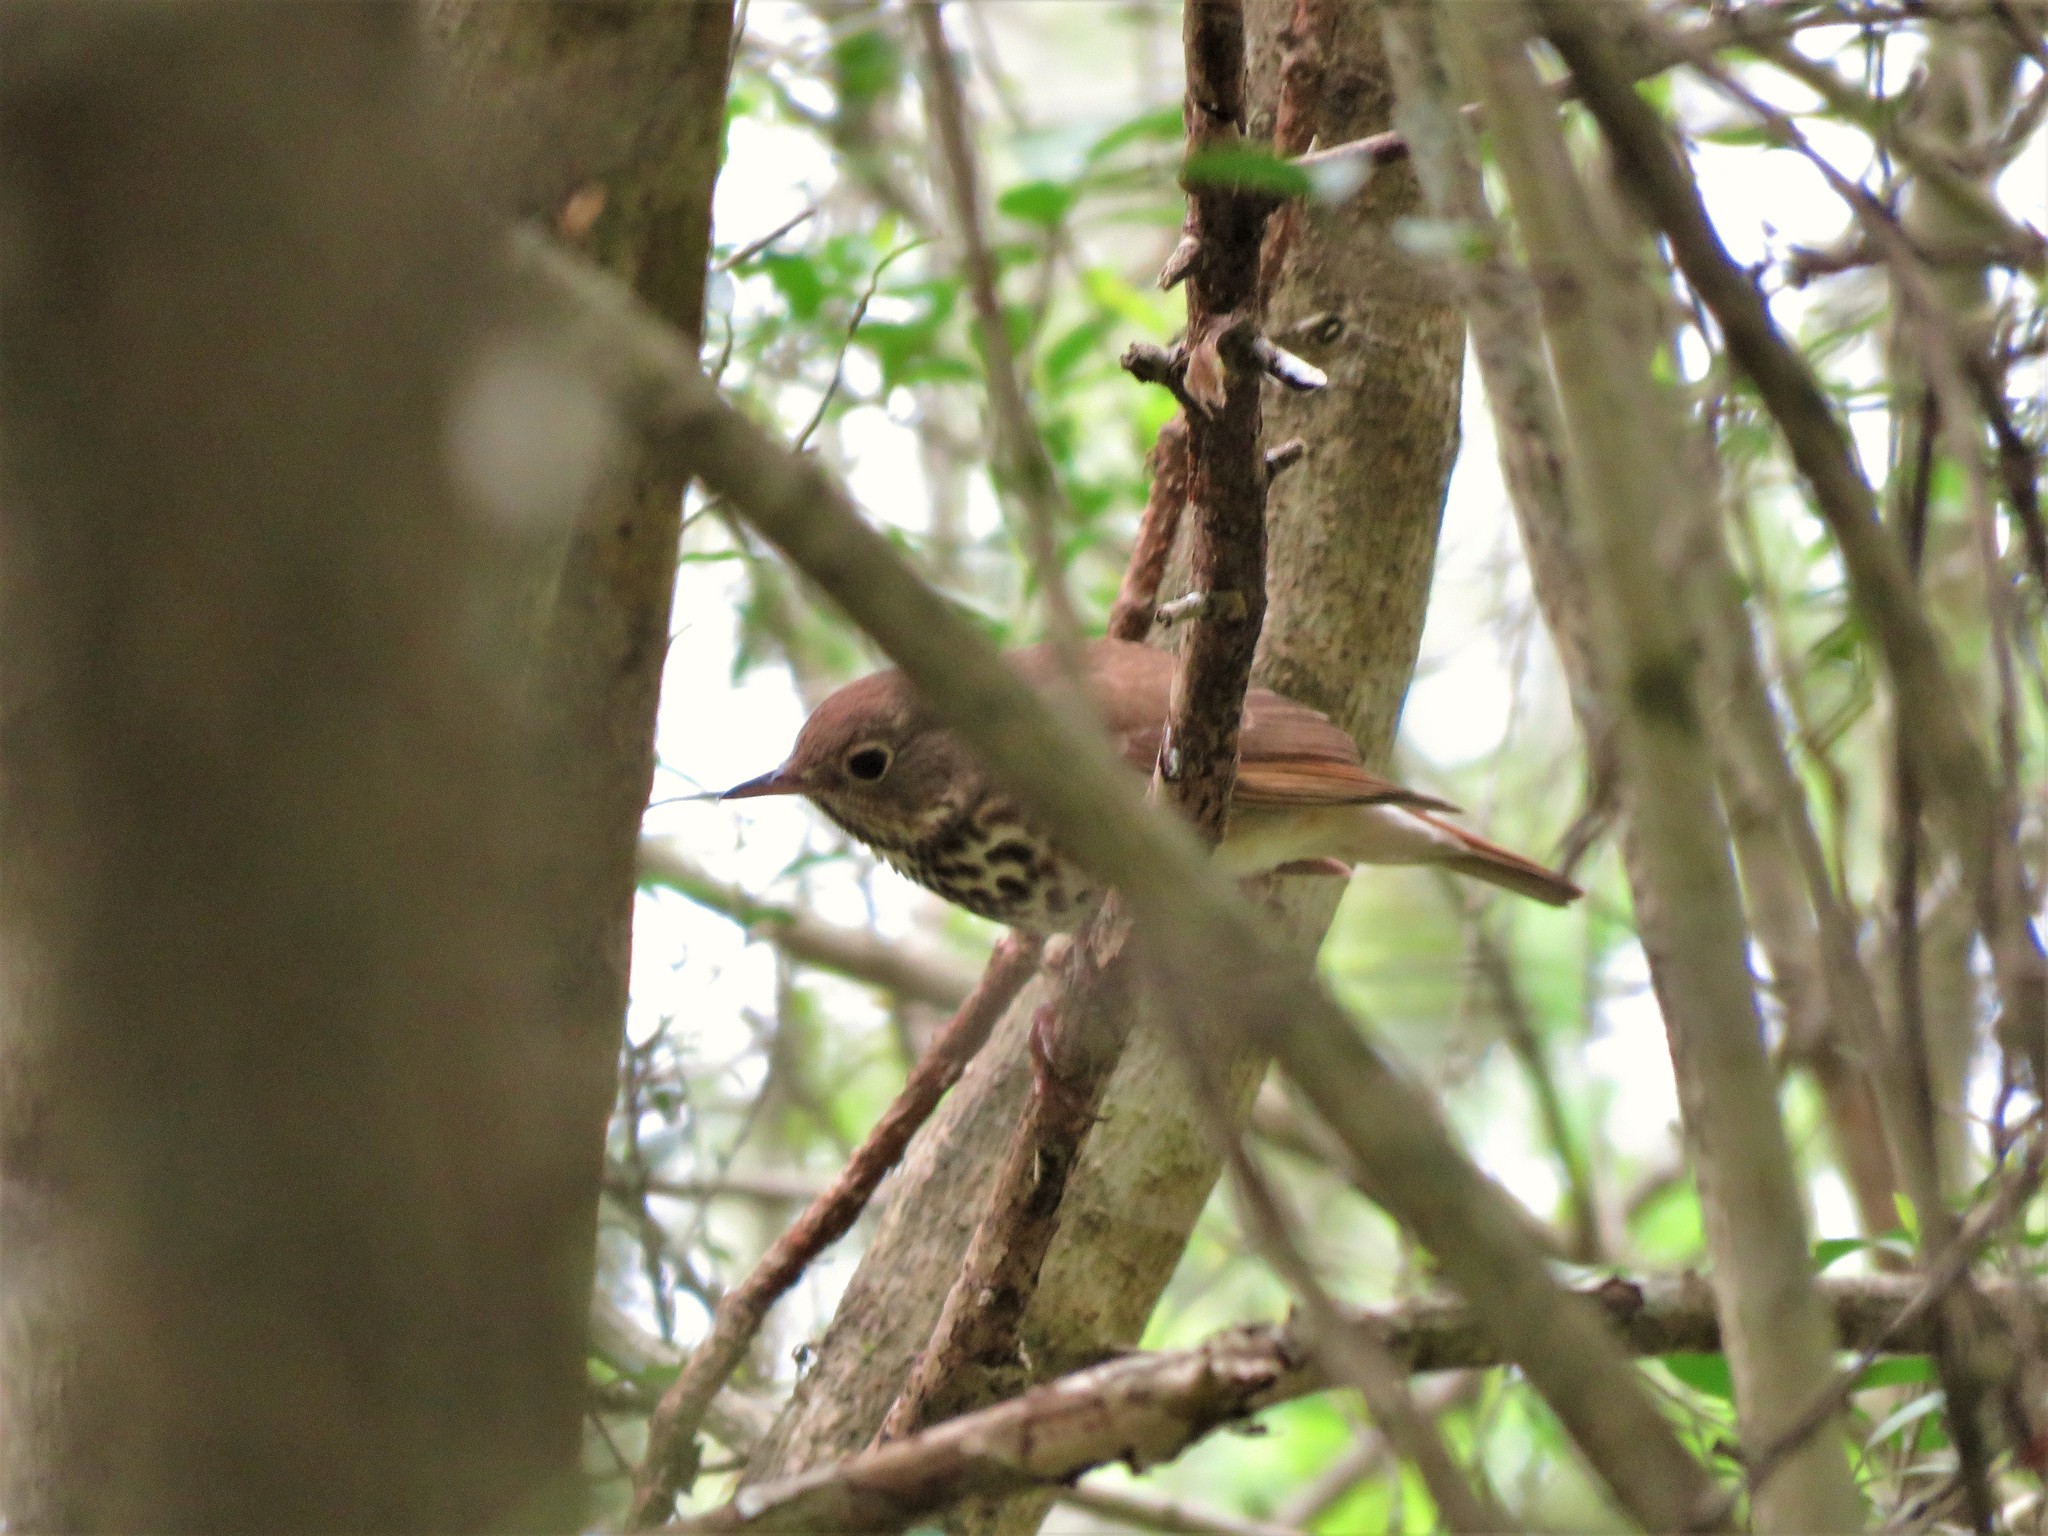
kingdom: Animalia
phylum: Chordata
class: Aves
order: Passeriformes
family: Turdidae
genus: Catharus
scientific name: Catharus guttatus
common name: Hermit thrush
